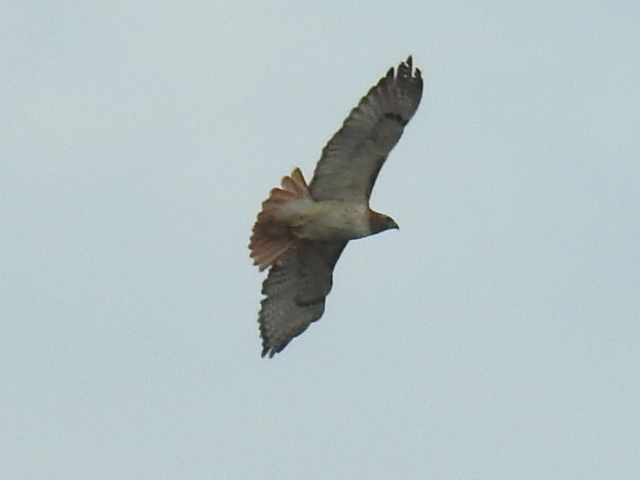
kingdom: Animalia
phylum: Chordata
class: Aves
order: Accipitriformes
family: Accipitridae
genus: Buteo
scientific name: Buteo jamaicensis
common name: Red-tailed hawk
